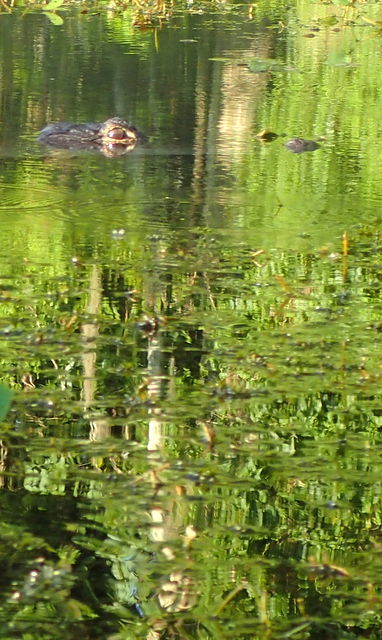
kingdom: Animalia
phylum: Chordata
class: Crocodylia
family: Alligatoridae
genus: Alligator
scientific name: Alligator mississippiensis
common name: American alligator
